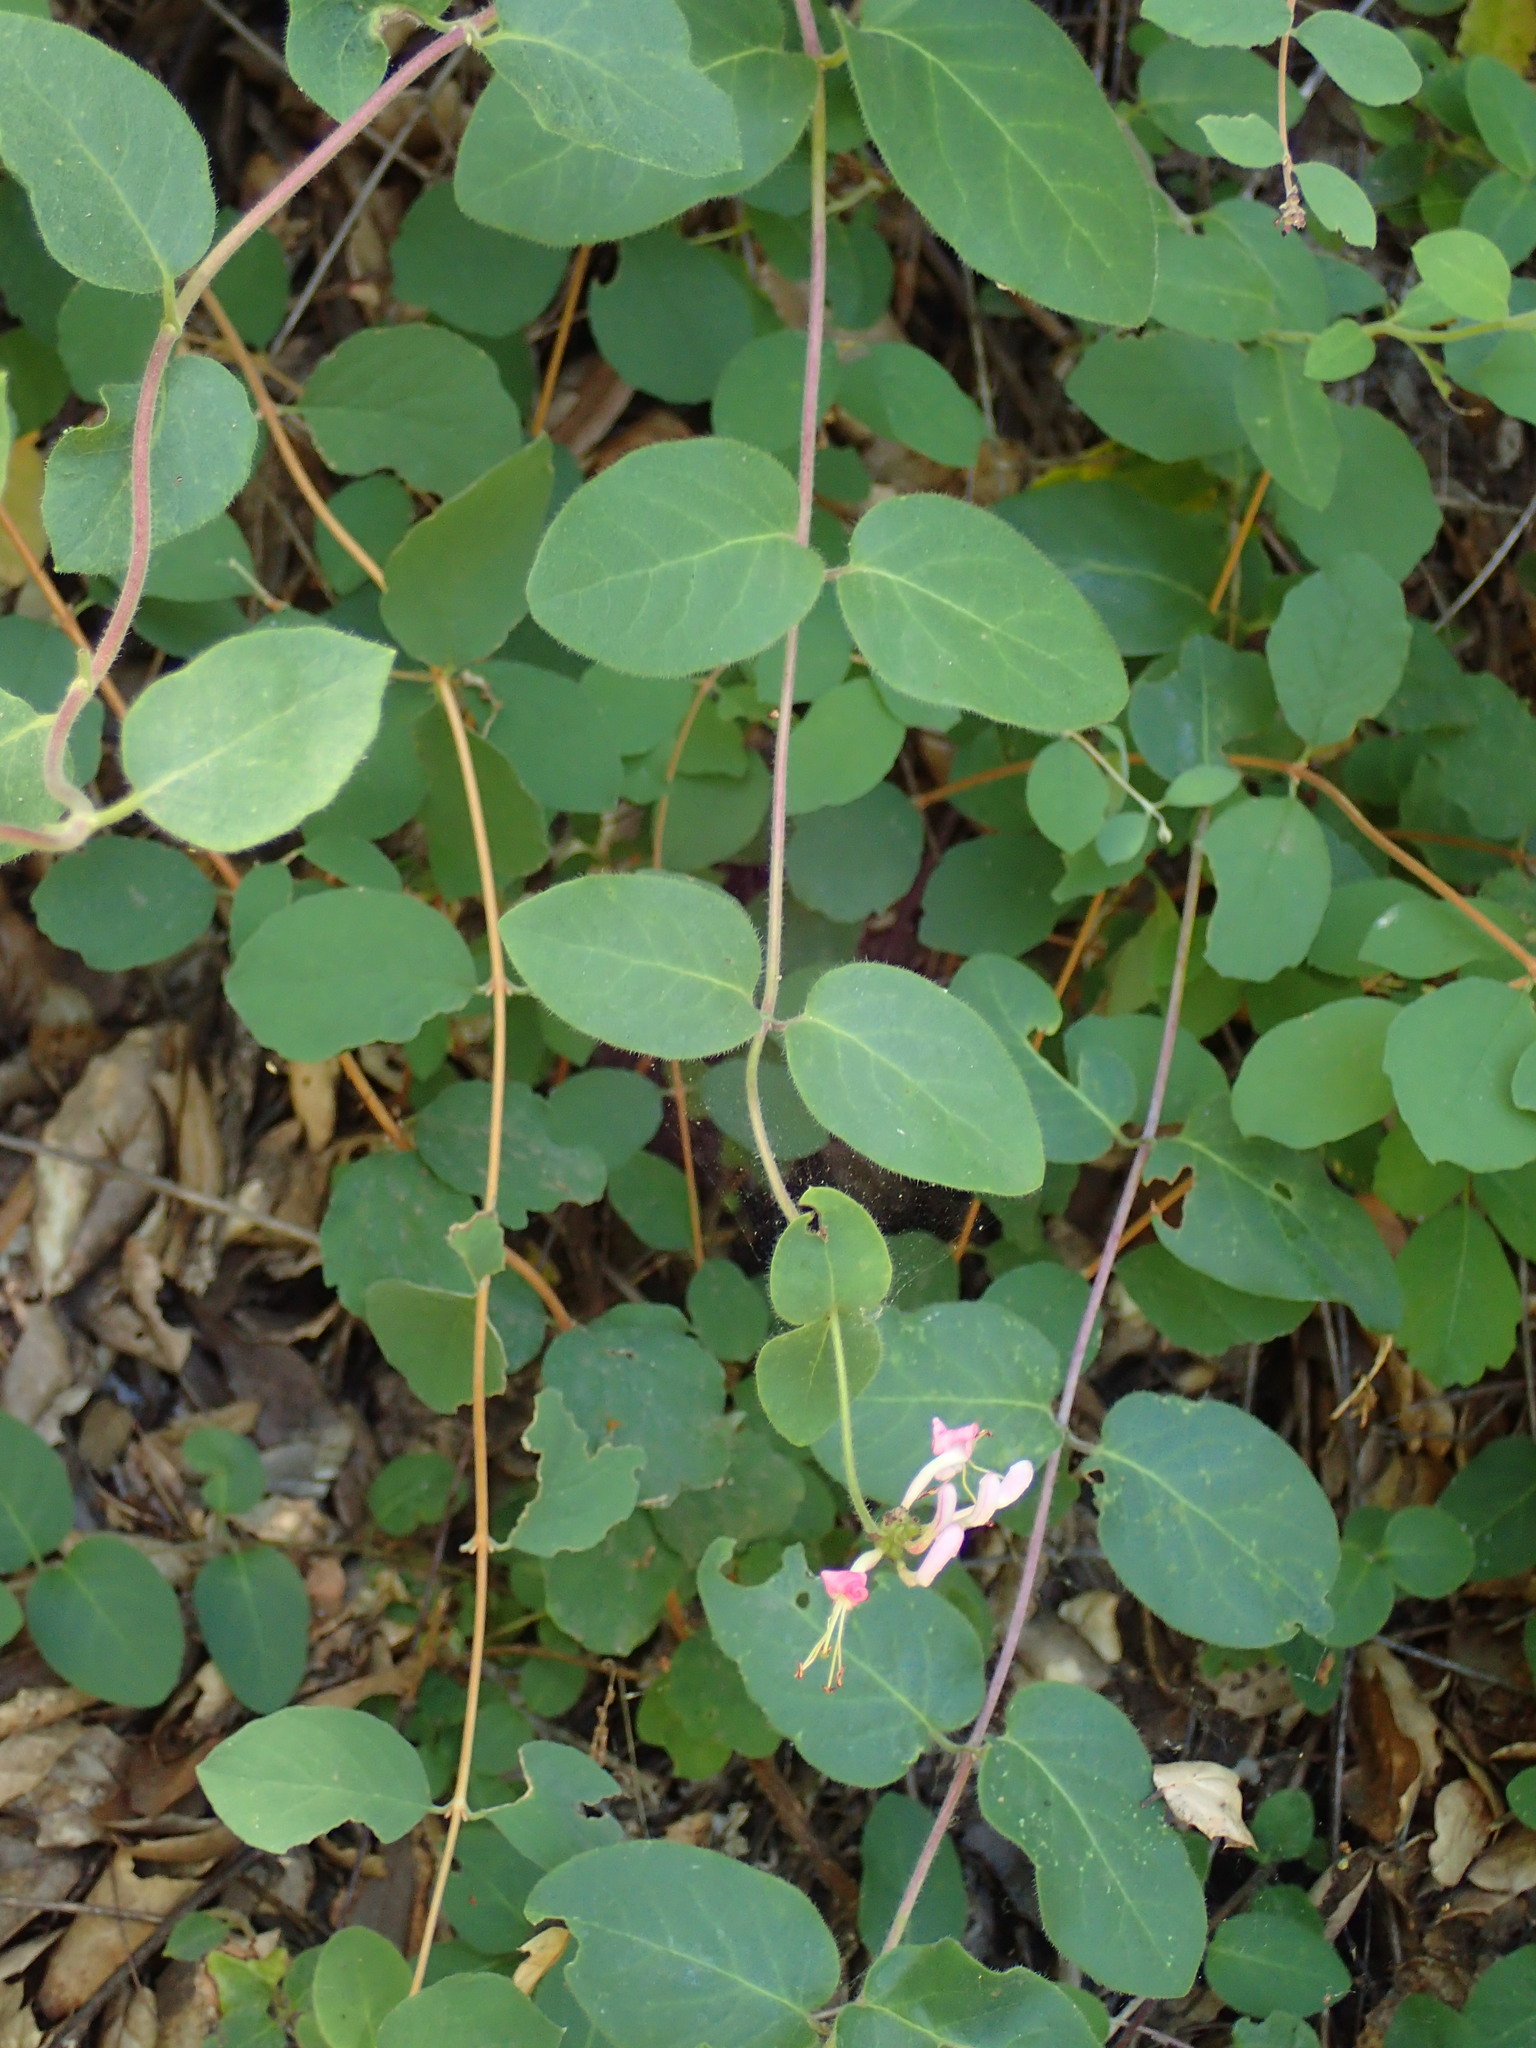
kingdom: Plantae
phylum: Tracheophyta
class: Magnoliopsida
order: Dipsacales
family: Caprifoliaceae
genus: Lonicera
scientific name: Lonicera hispidula
